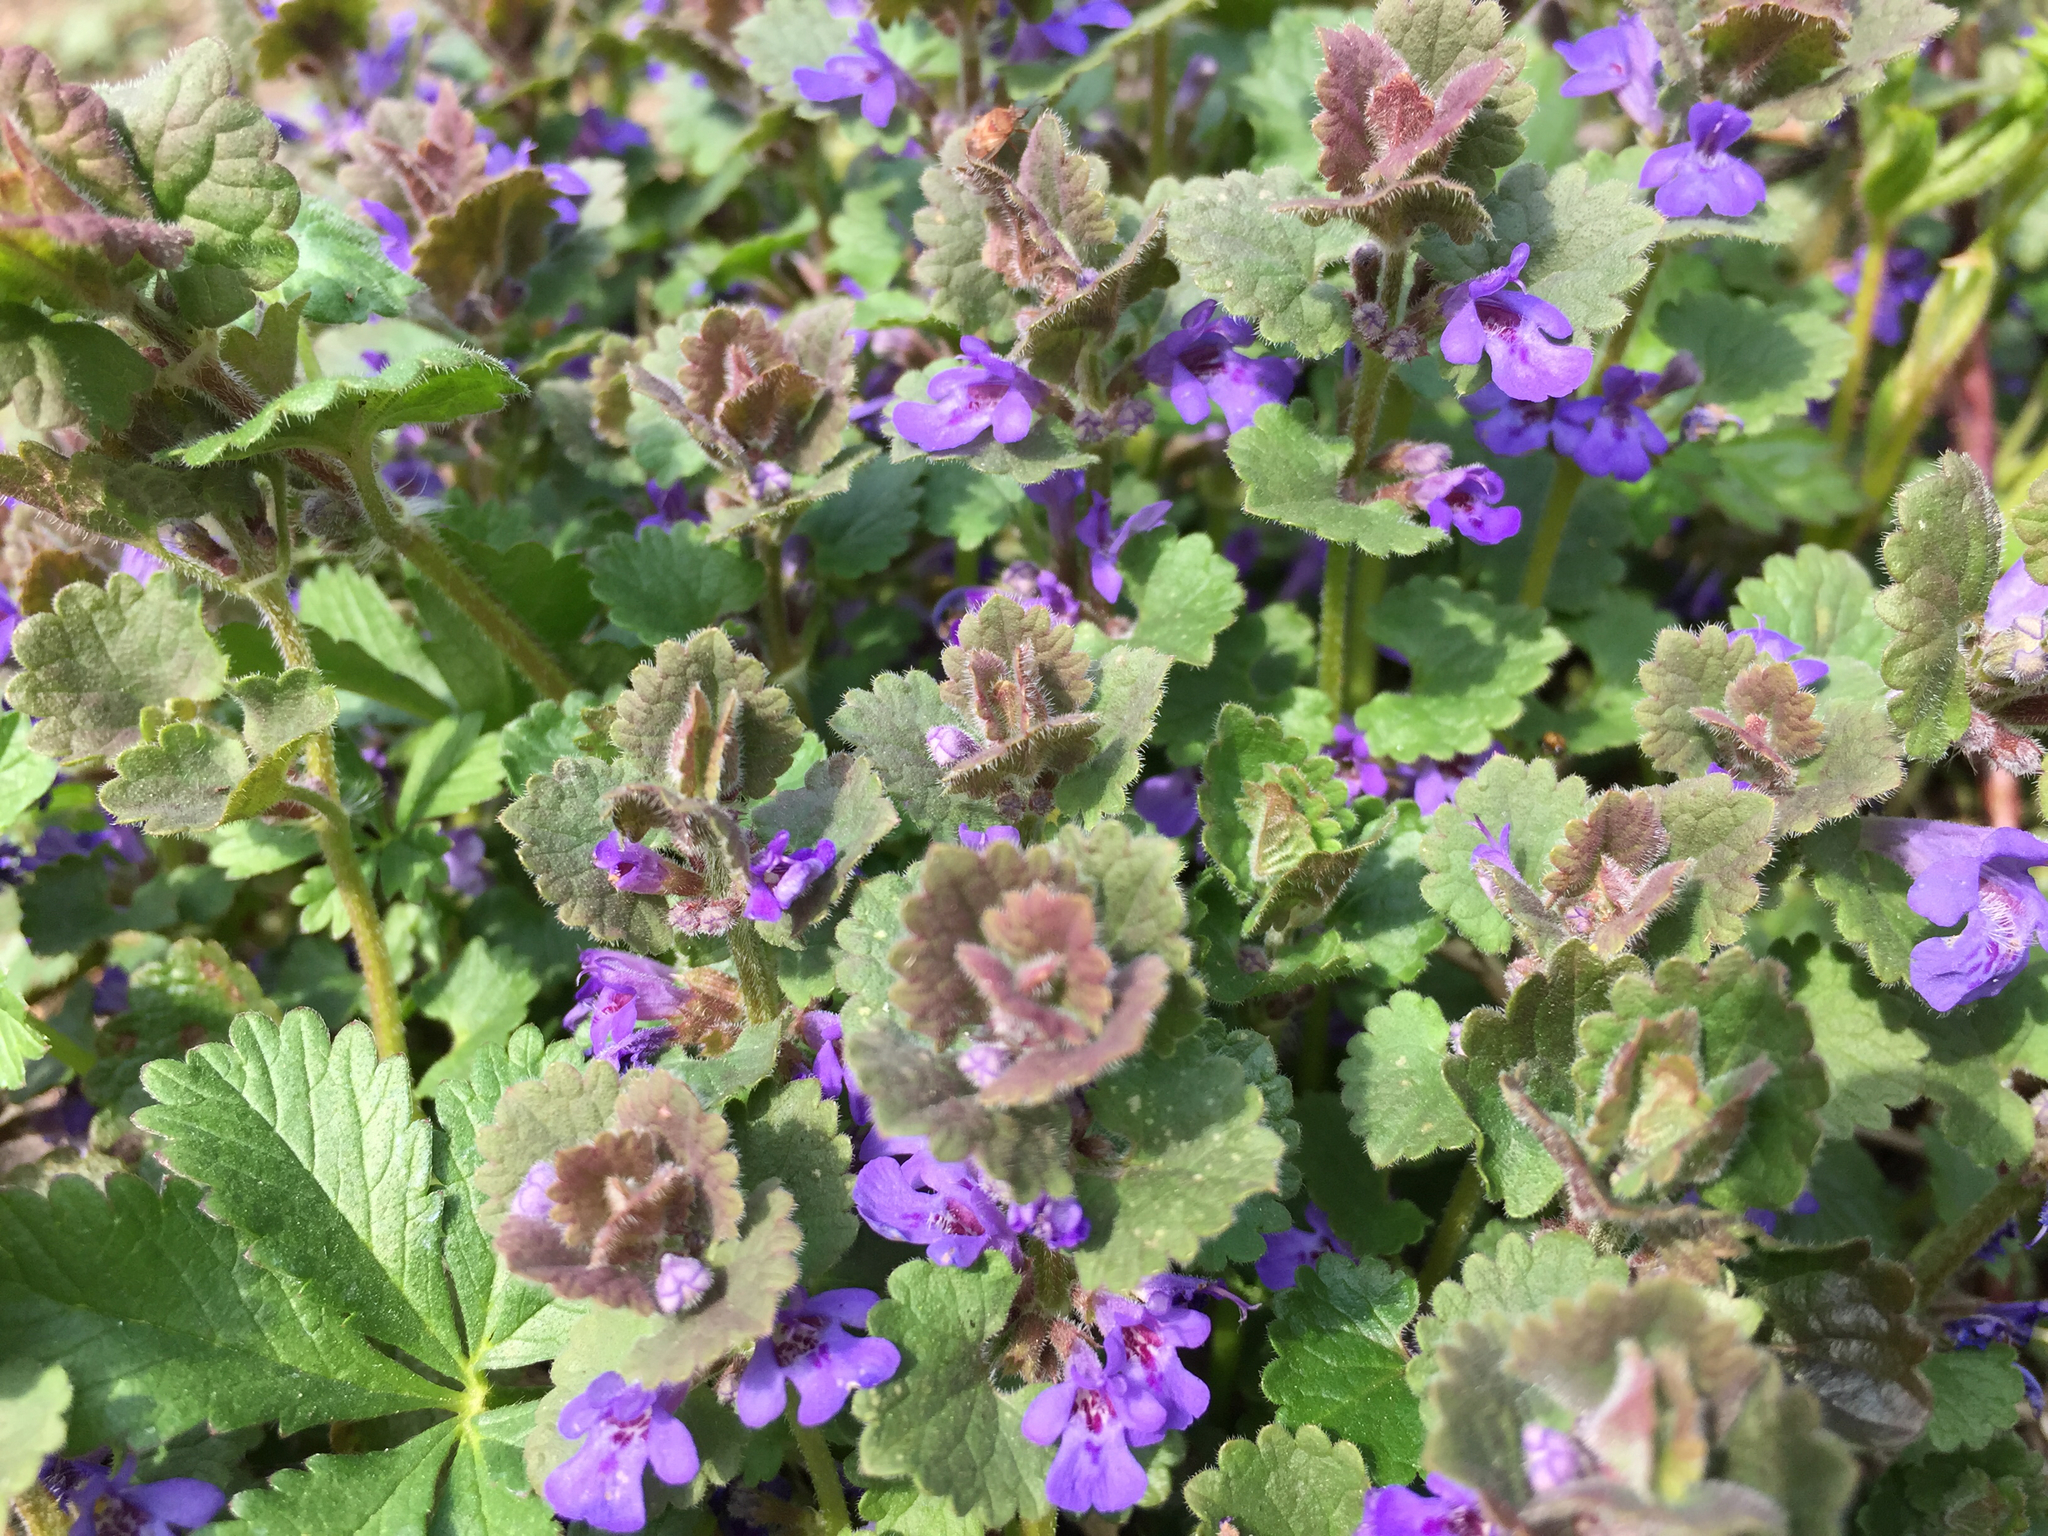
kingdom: Plantae
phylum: Tracheophyta
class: Magnoliopsida
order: Lamiales
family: Lamiaceae
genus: Glechoma
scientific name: Glechoma hederacea
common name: Ground ivy
